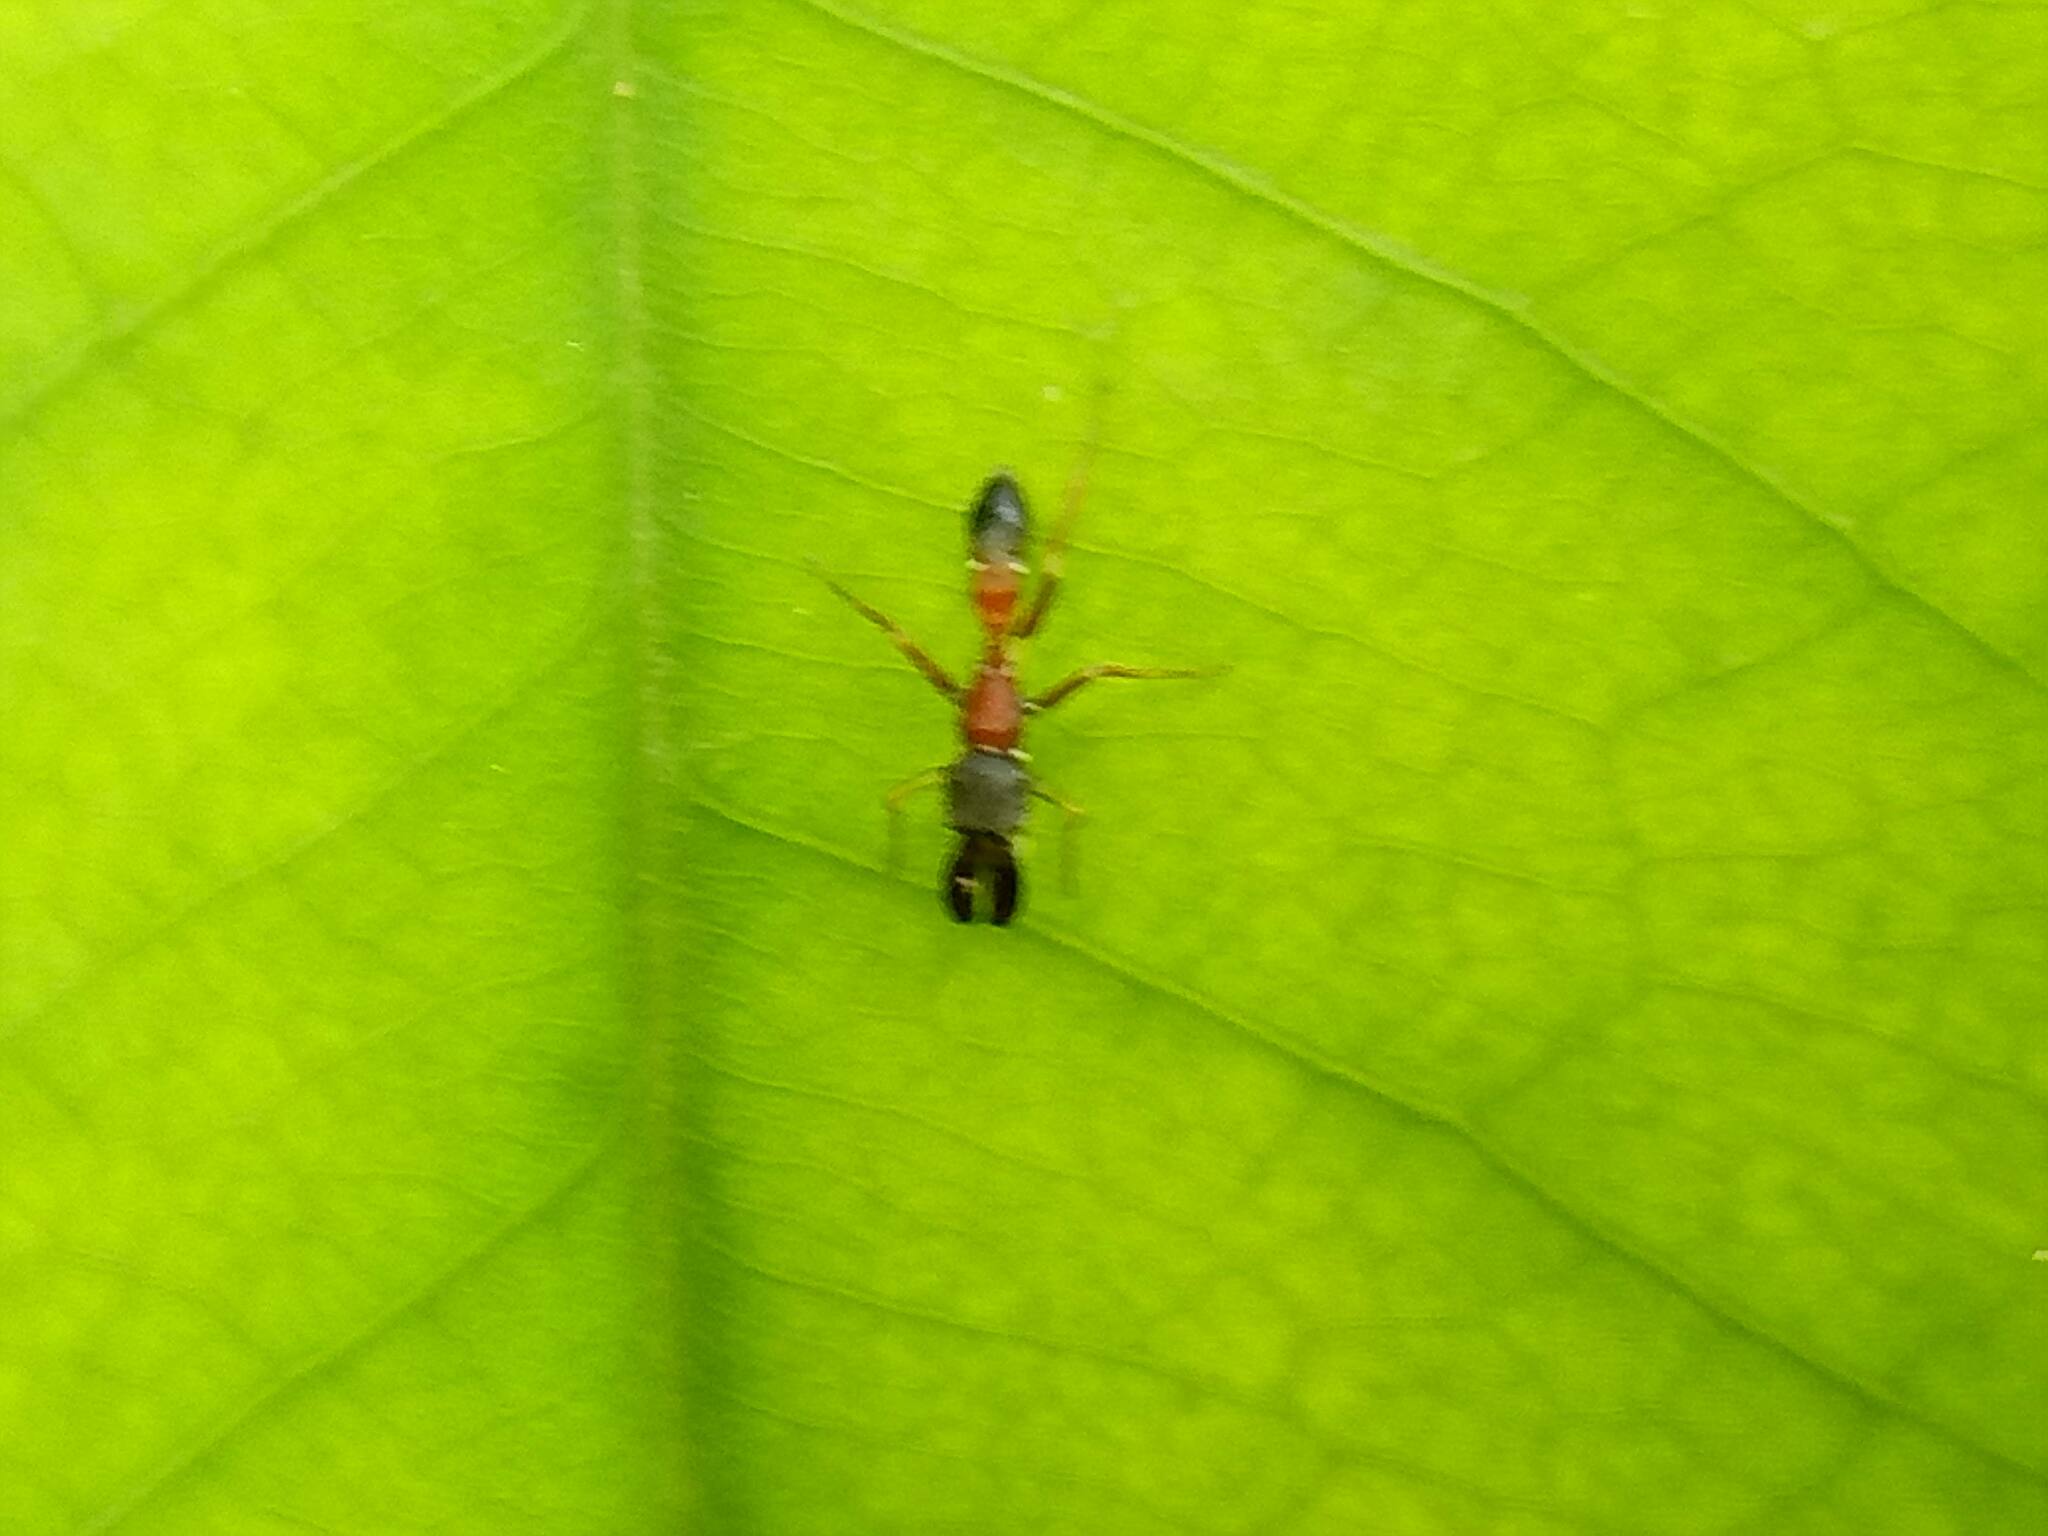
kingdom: Animalia
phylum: Arthropoda
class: Arachnida
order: Araneae
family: Salticidae
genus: Myrmarachne
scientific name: Myrmarachne melanocephala
